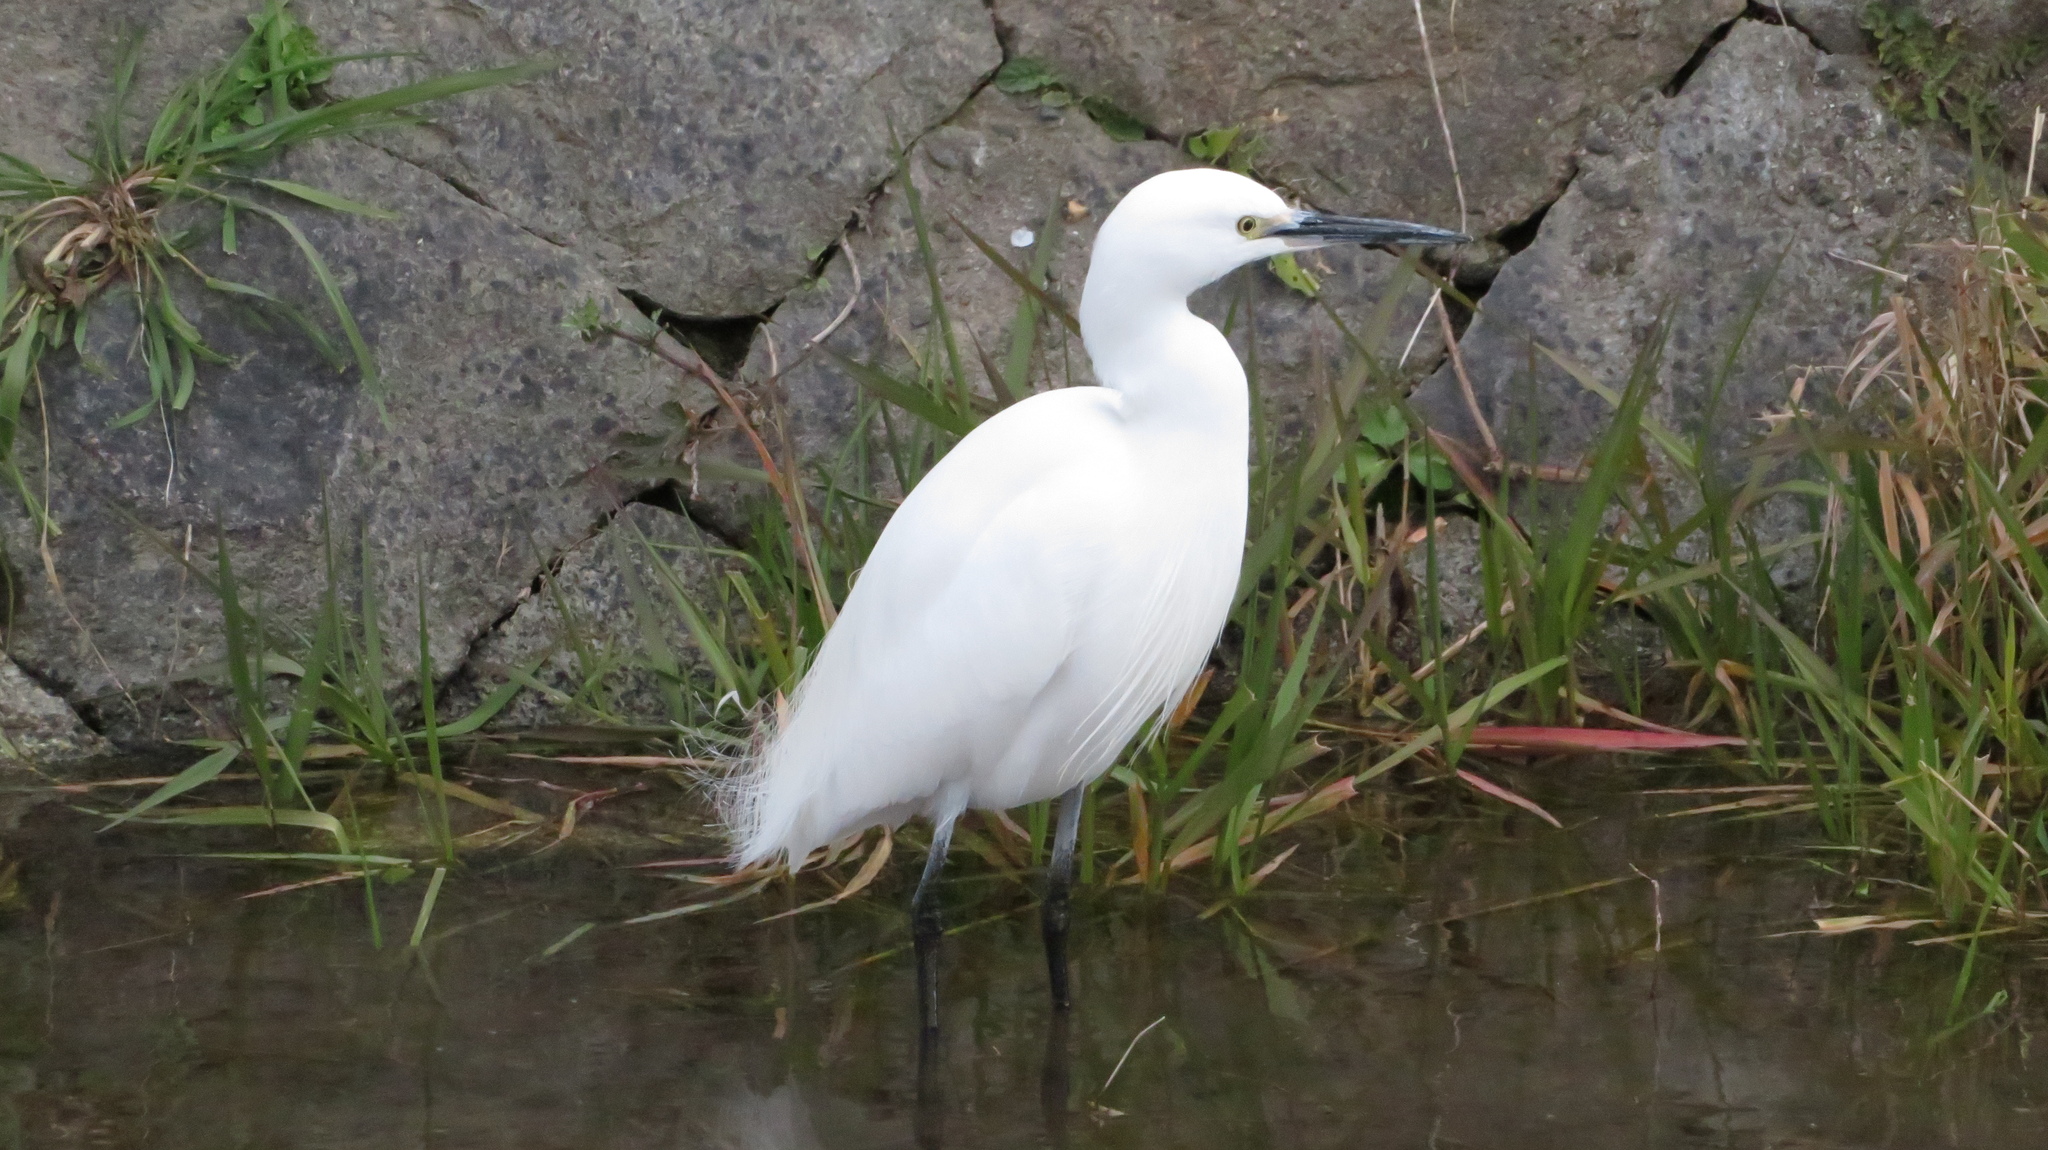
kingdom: Animalia
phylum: Chordata
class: Aves
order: Pelecaniformes
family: Ardeidae
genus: Egretta
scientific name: Egretta garzetta
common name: Little egret
